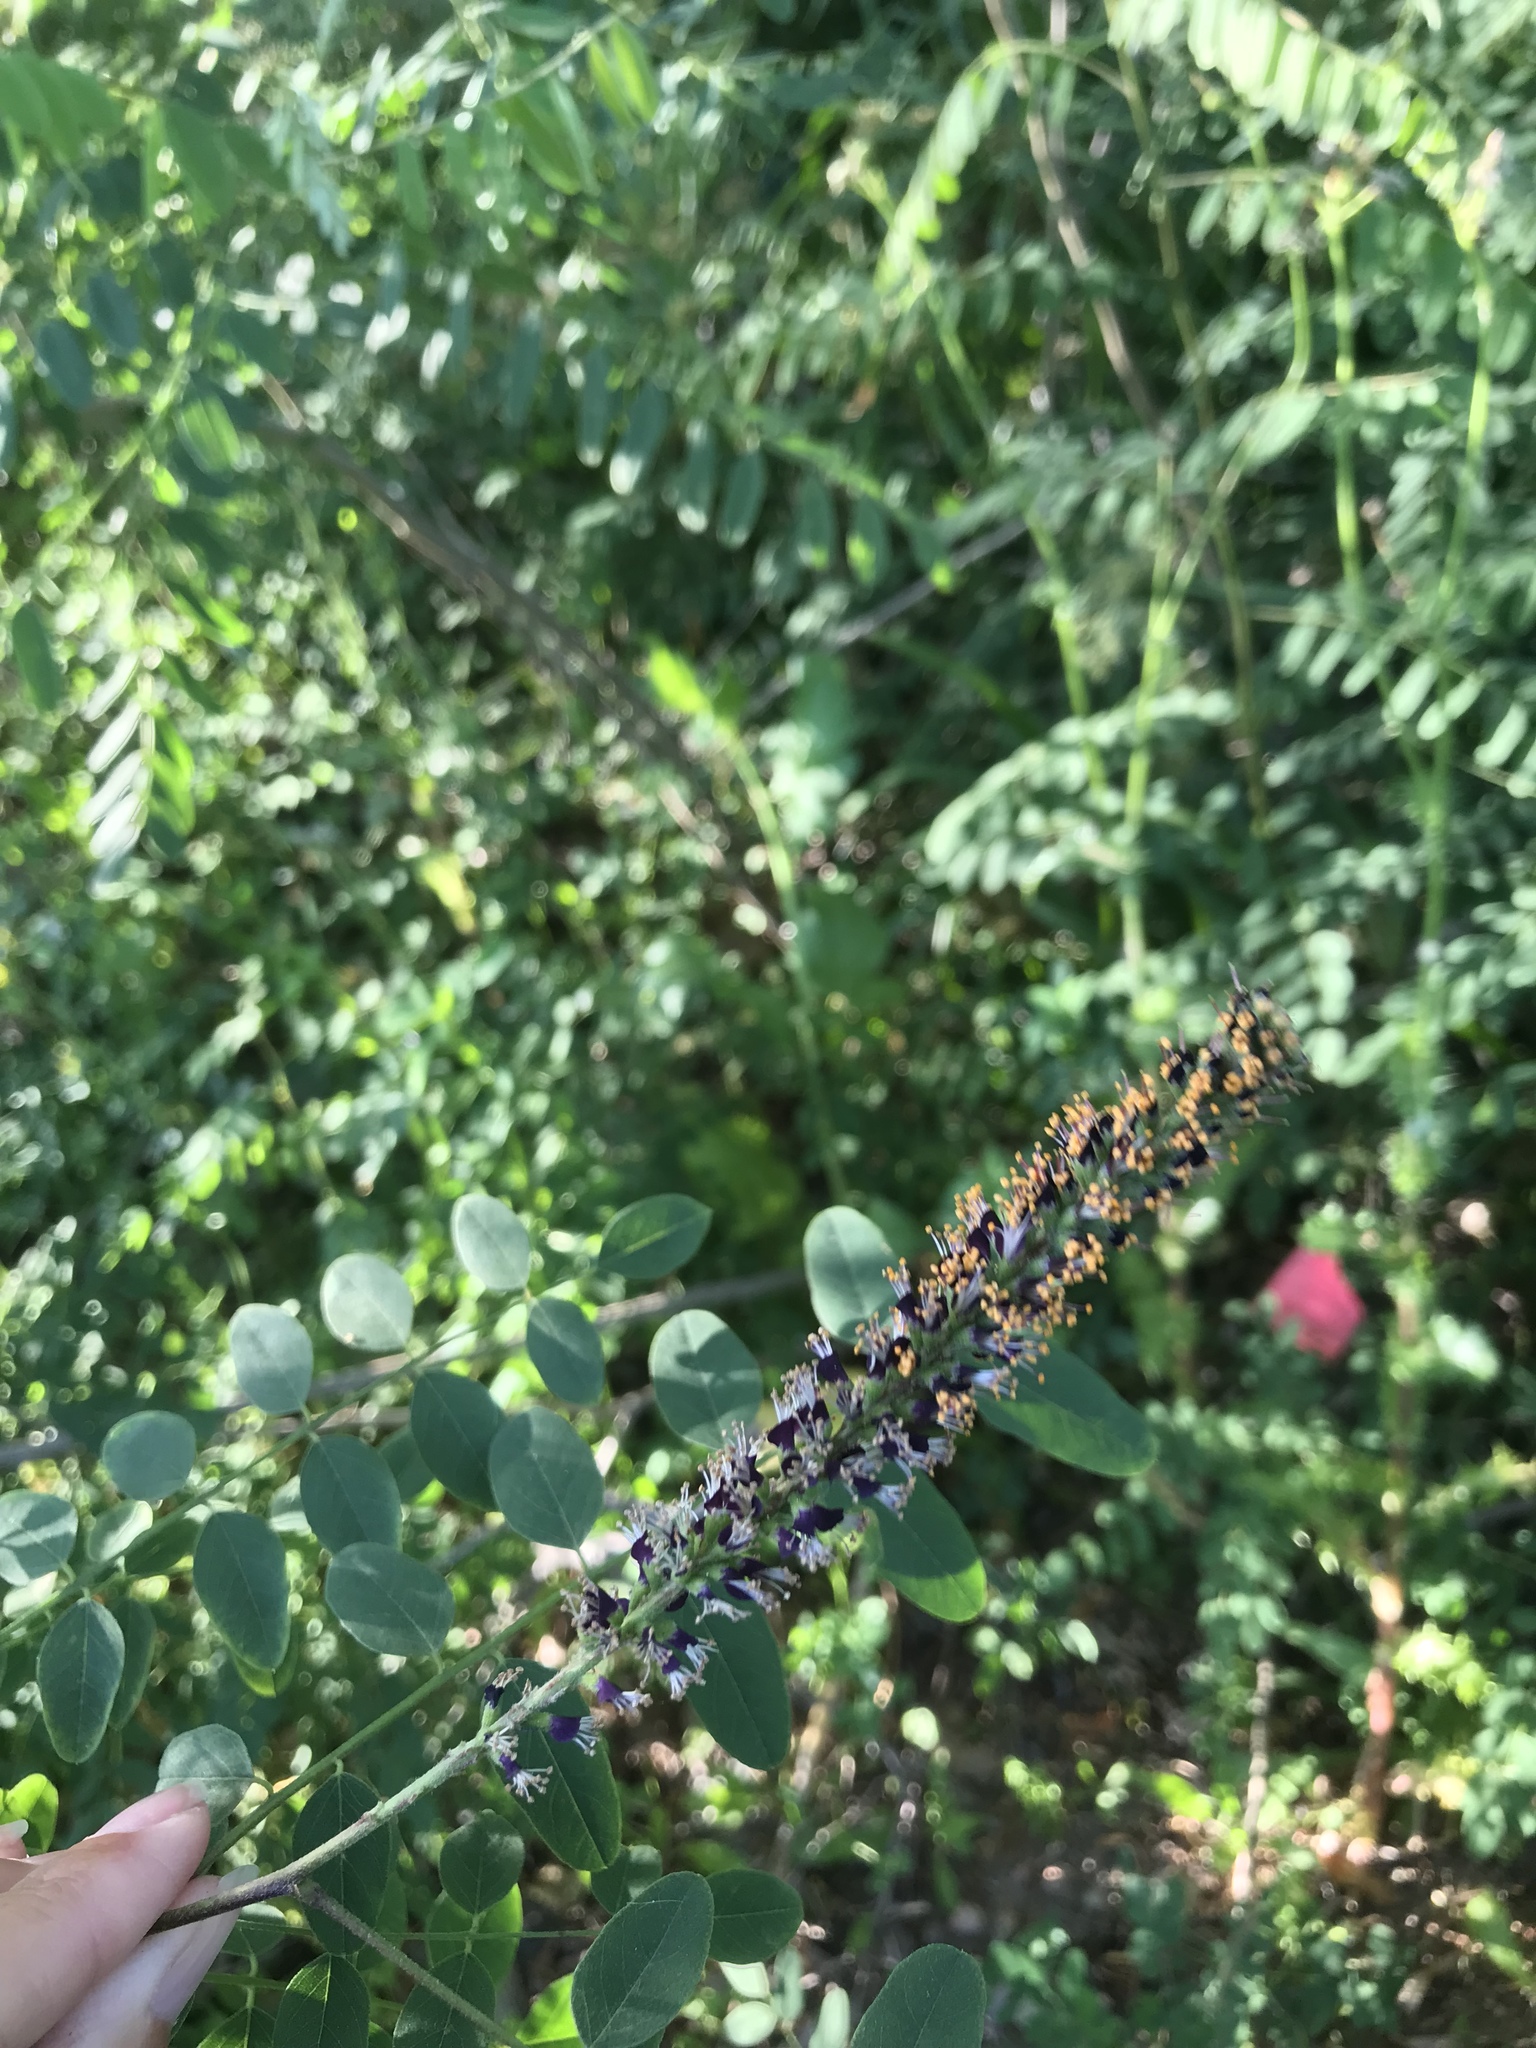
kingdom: Plantae
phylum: Tracheophyta
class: Magnoliopsida
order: Fabales
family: Fabaceae
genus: Amorpha
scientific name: Amorpha fruticosa
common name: False indigo
